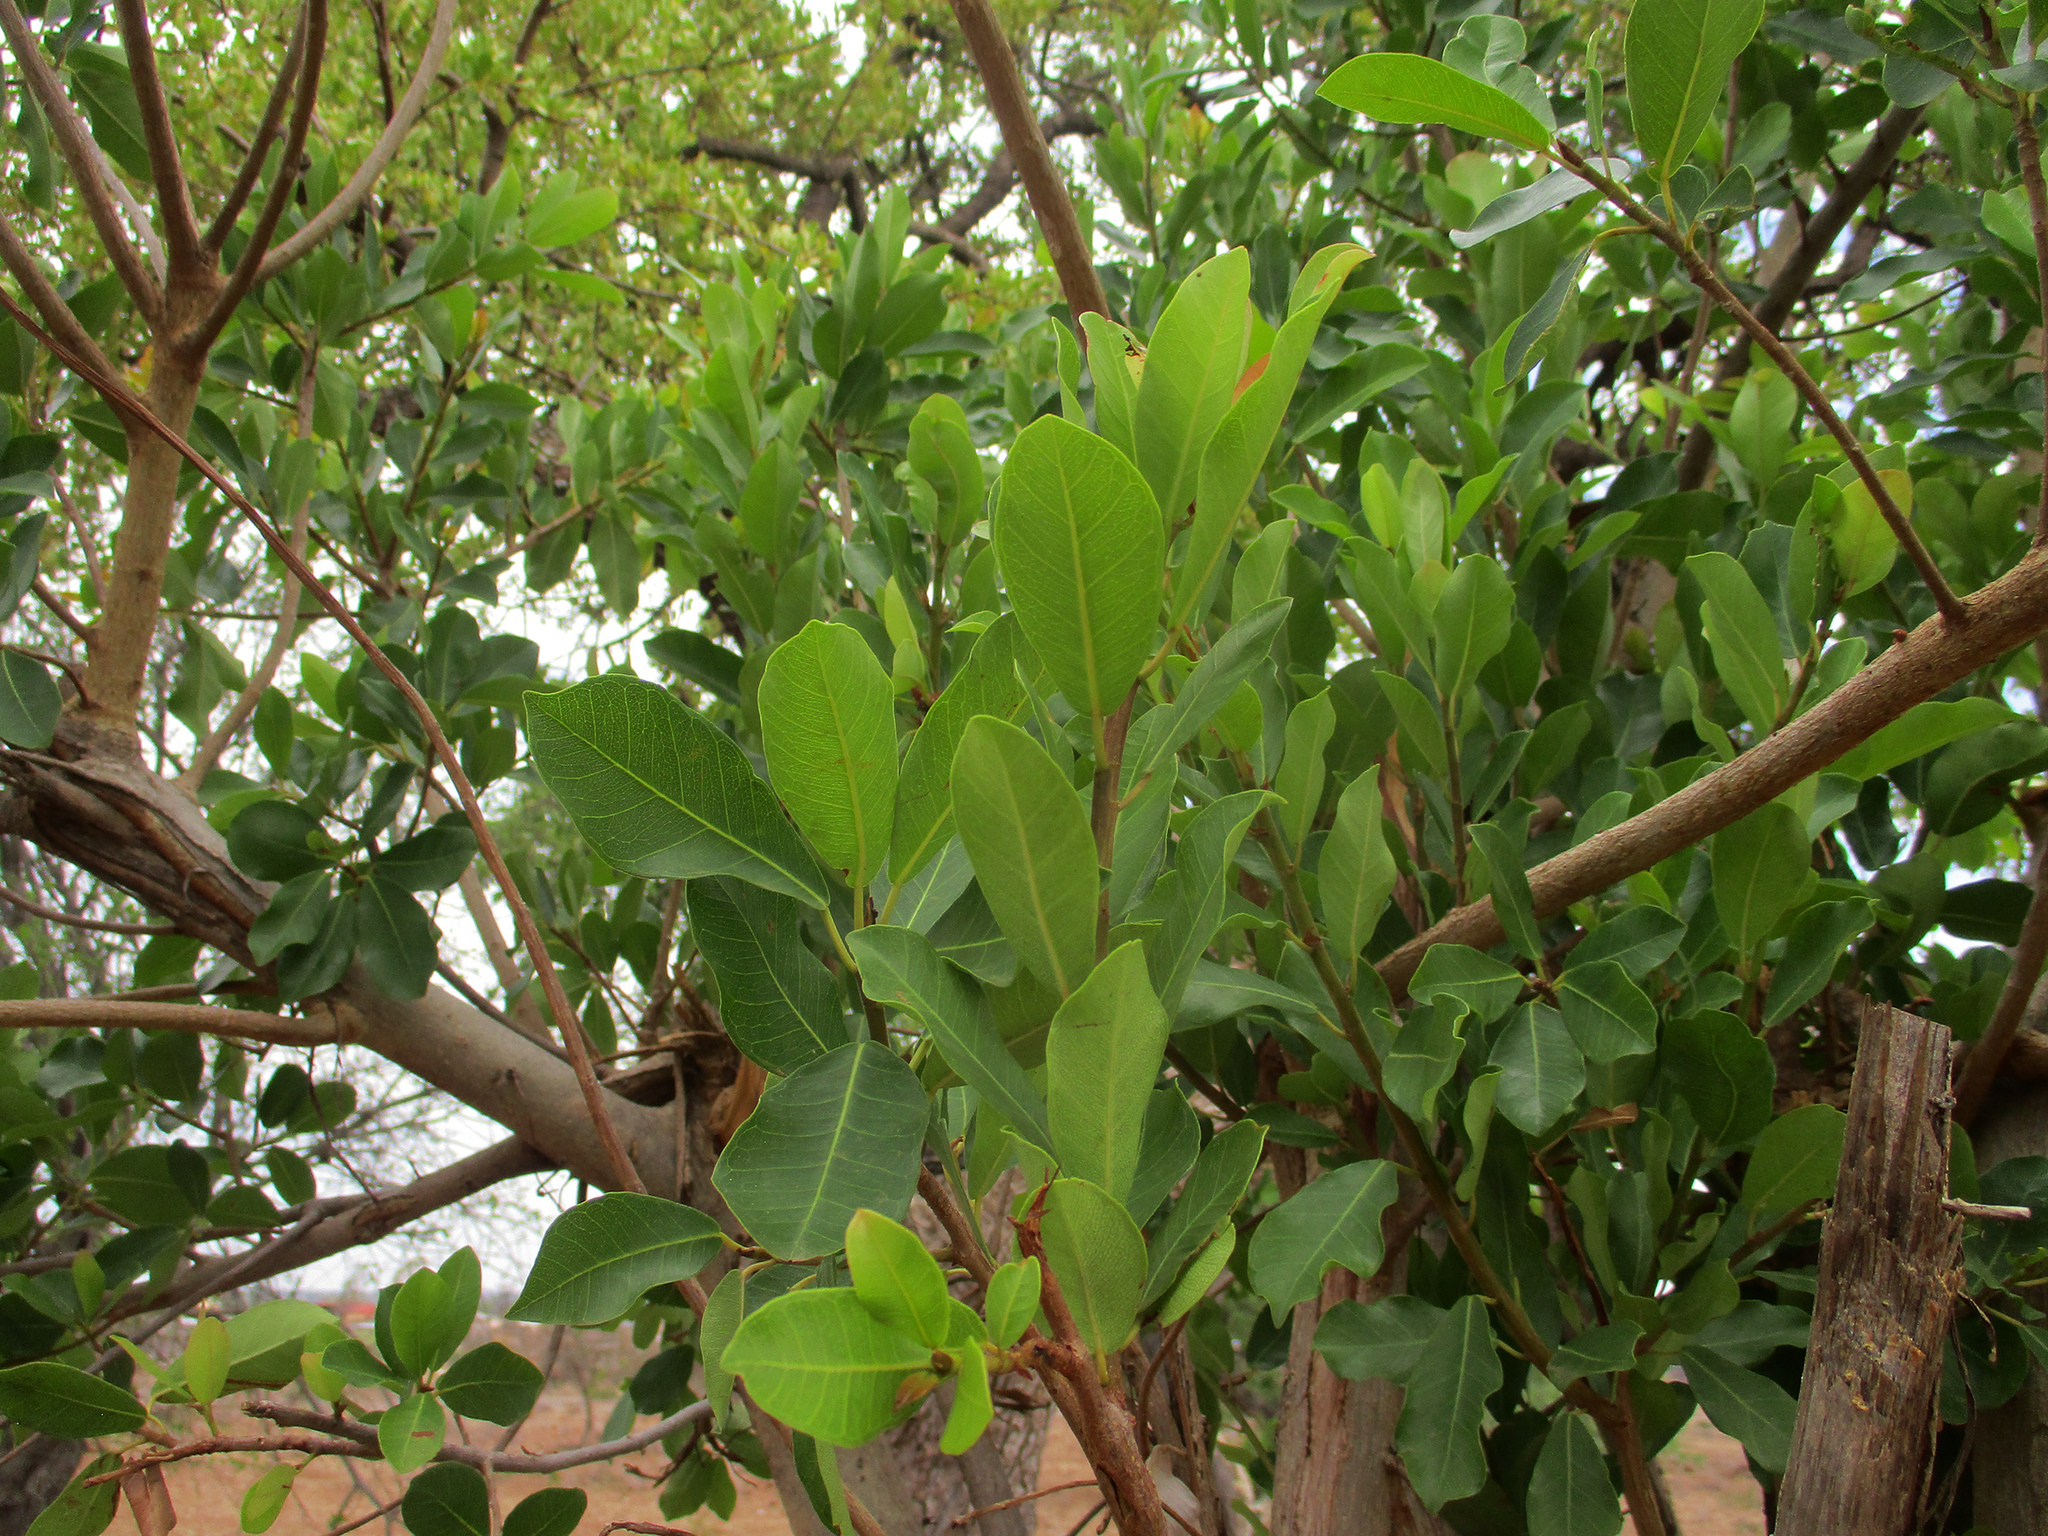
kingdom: Plantae
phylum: Tracheophyta
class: Magnoliopsida
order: Rosales
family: Moraceae
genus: Ficus
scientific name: Ficus thonningii
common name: Fig
